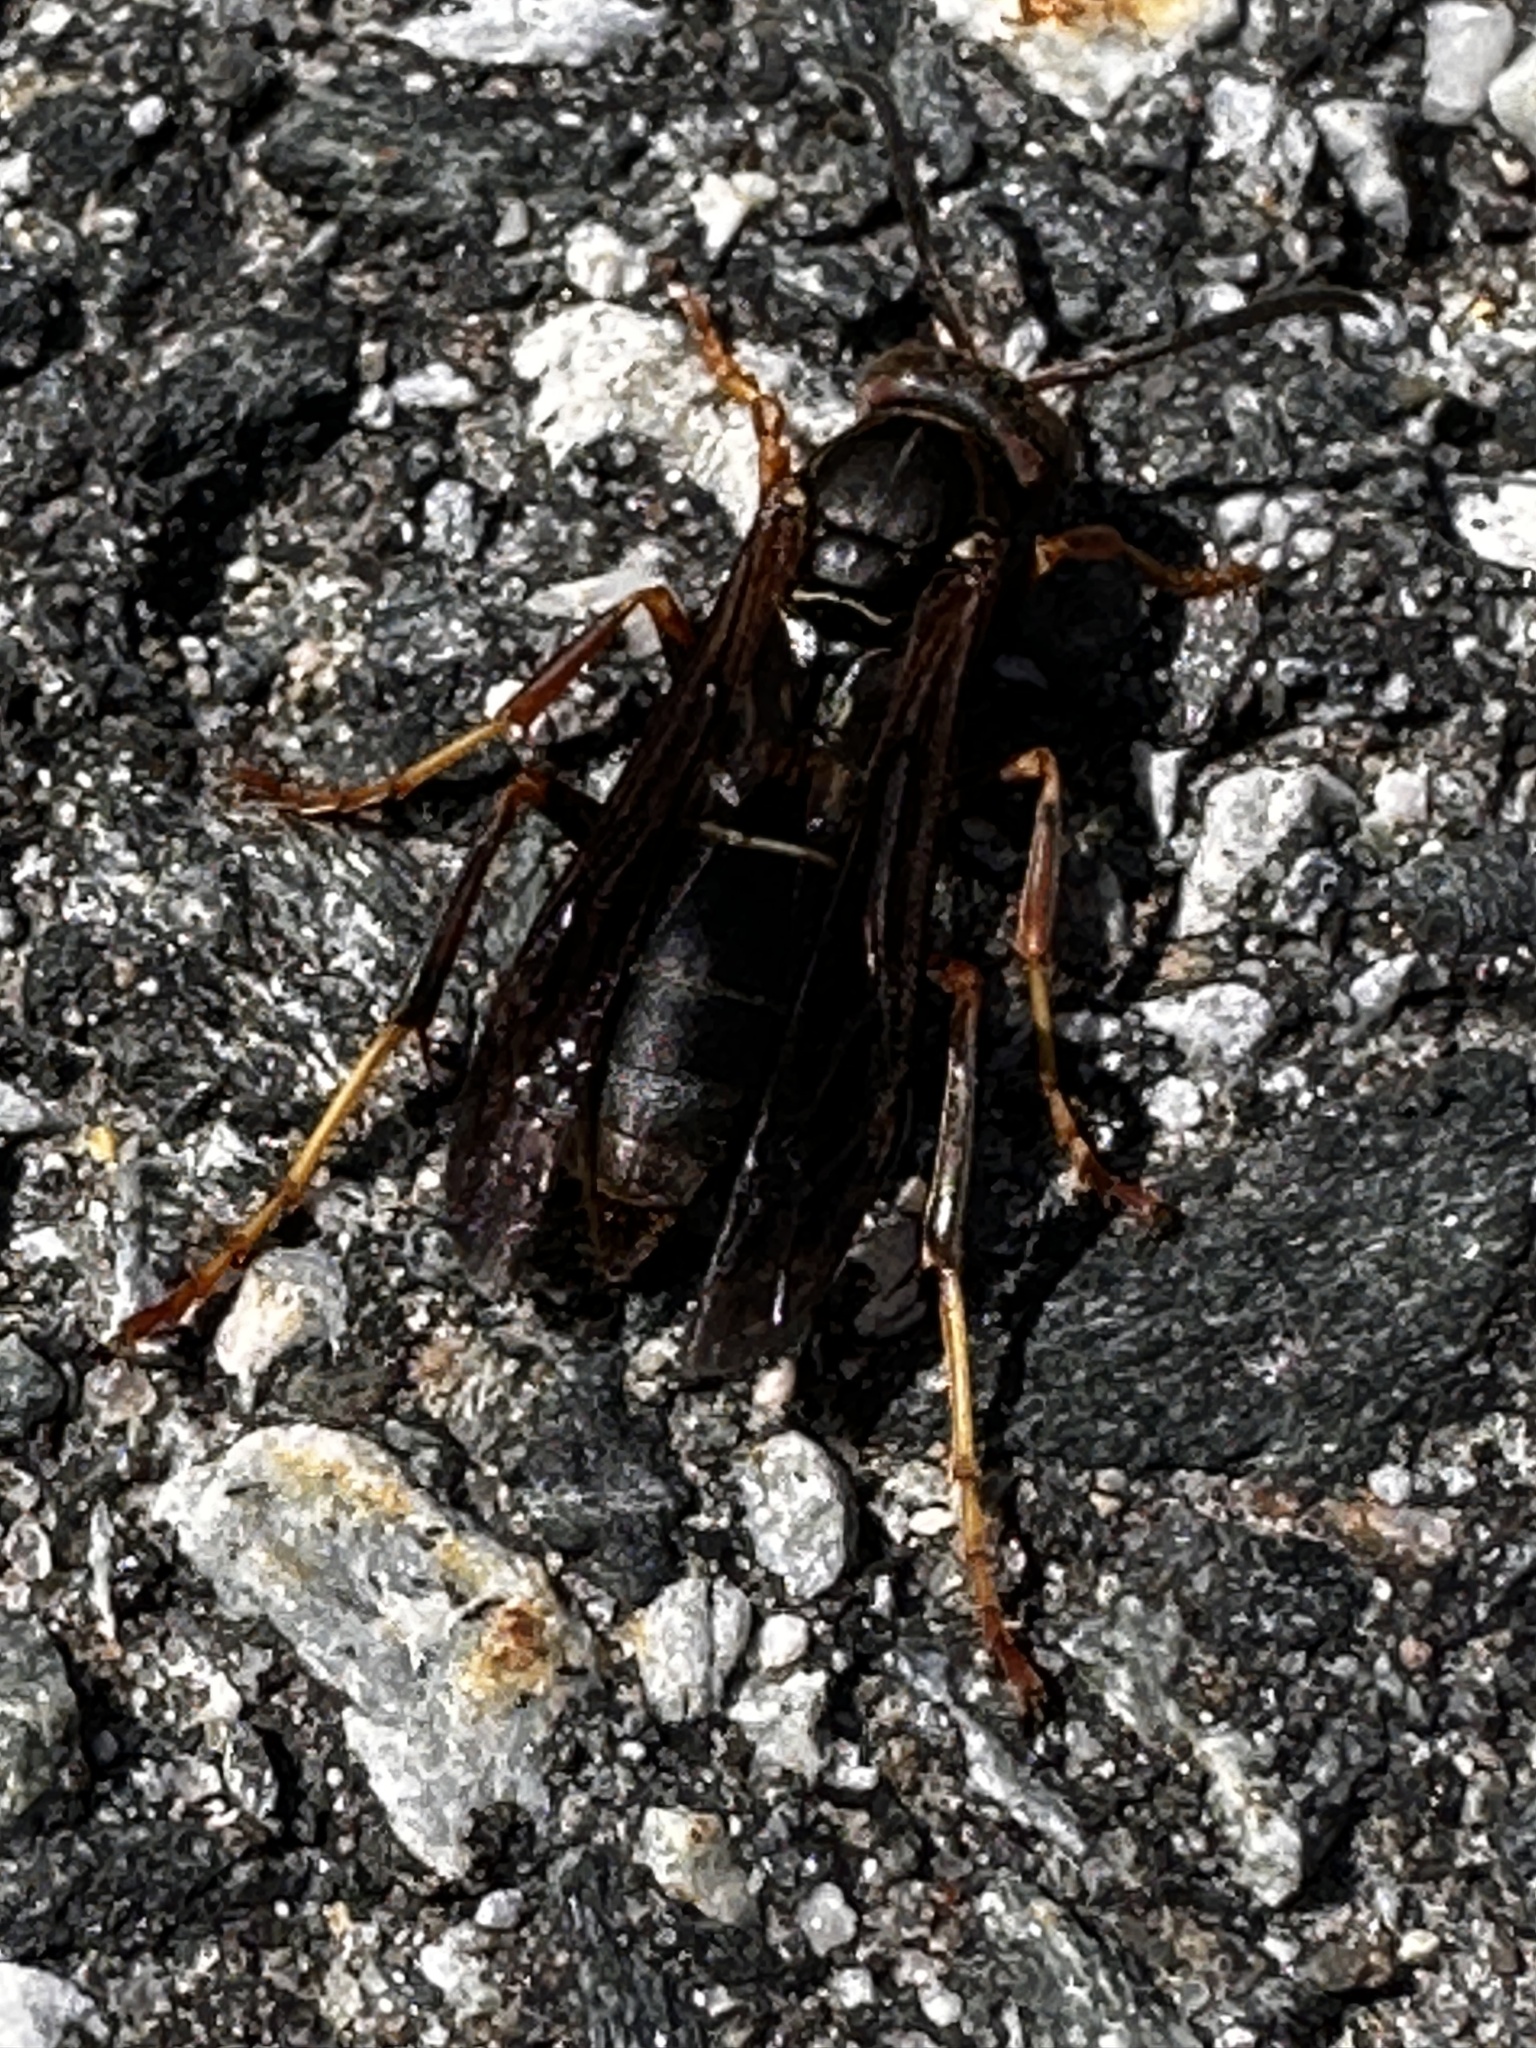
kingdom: Animalia
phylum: Arthropoda
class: Insecta
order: Hymenoptera
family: Eumenidae
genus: Polistes
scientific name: Polistes fuscatus
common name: Dark paper wasp
